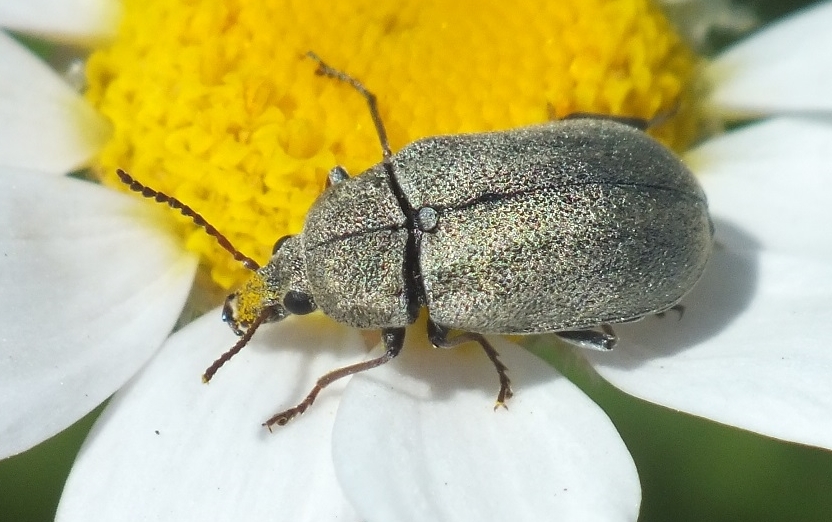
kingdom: Animalia
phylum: Arthropoda
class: Insecta
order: Coleoptera
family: Mycteridae
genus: Mycterus
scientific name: Mycterus tibialis
